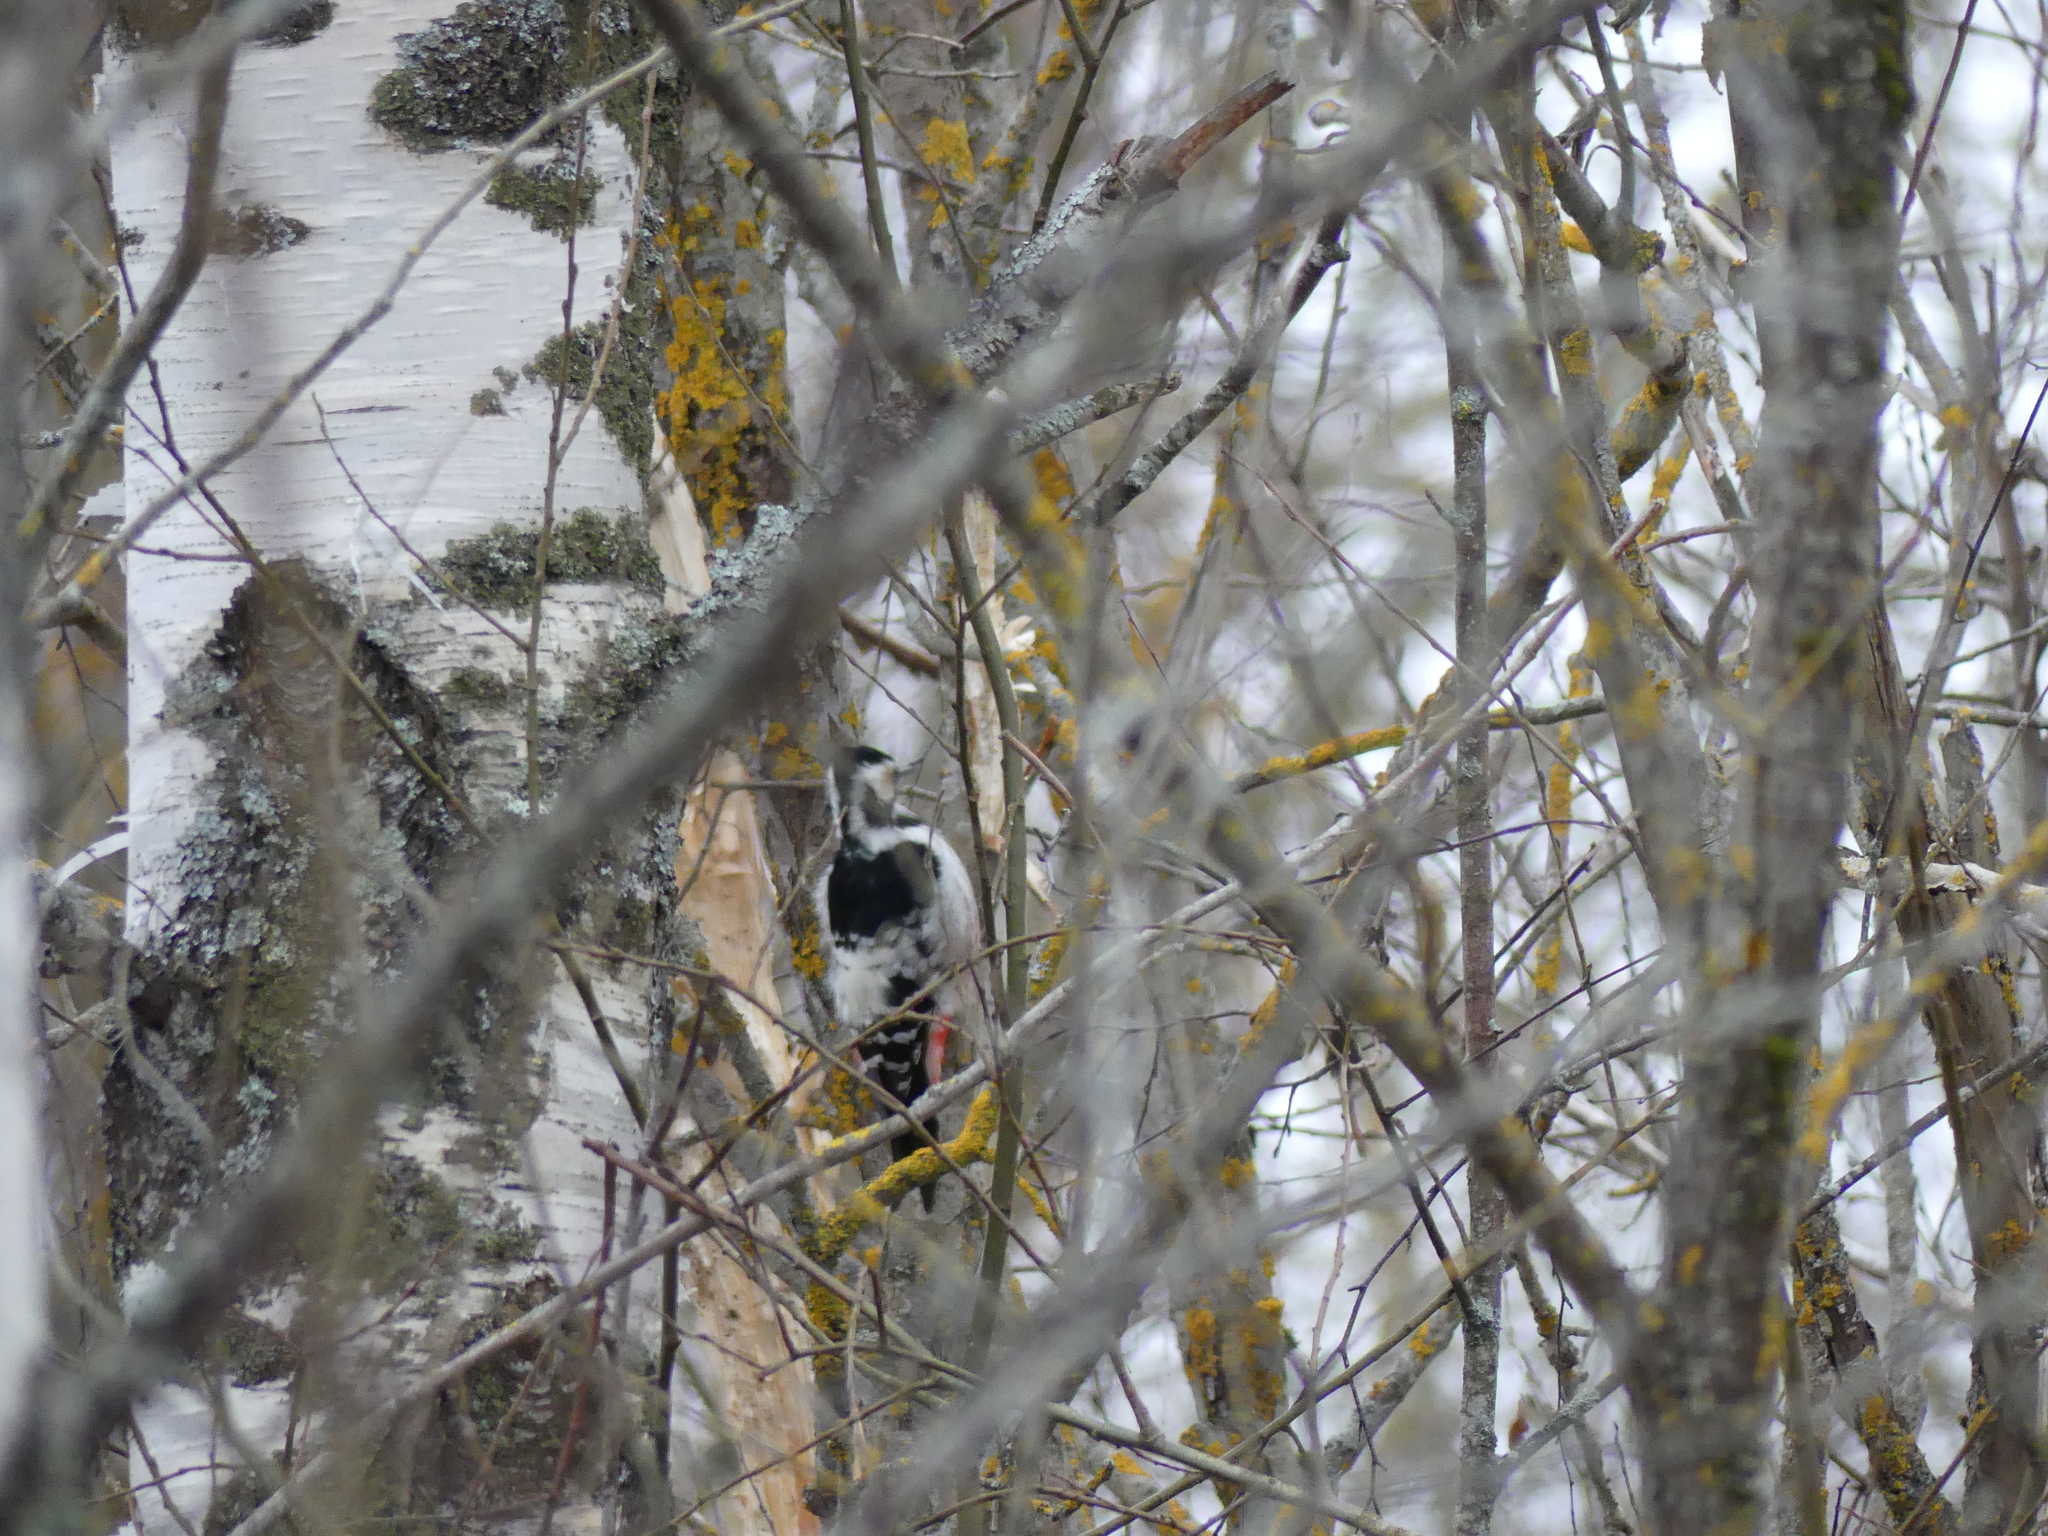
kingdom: Animalia
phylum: Chordata
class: Aves
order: Piciformes
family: Picidae
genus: Dendrocopos
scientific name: Dendrocopos leucotos
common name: White-backed woodpecker
